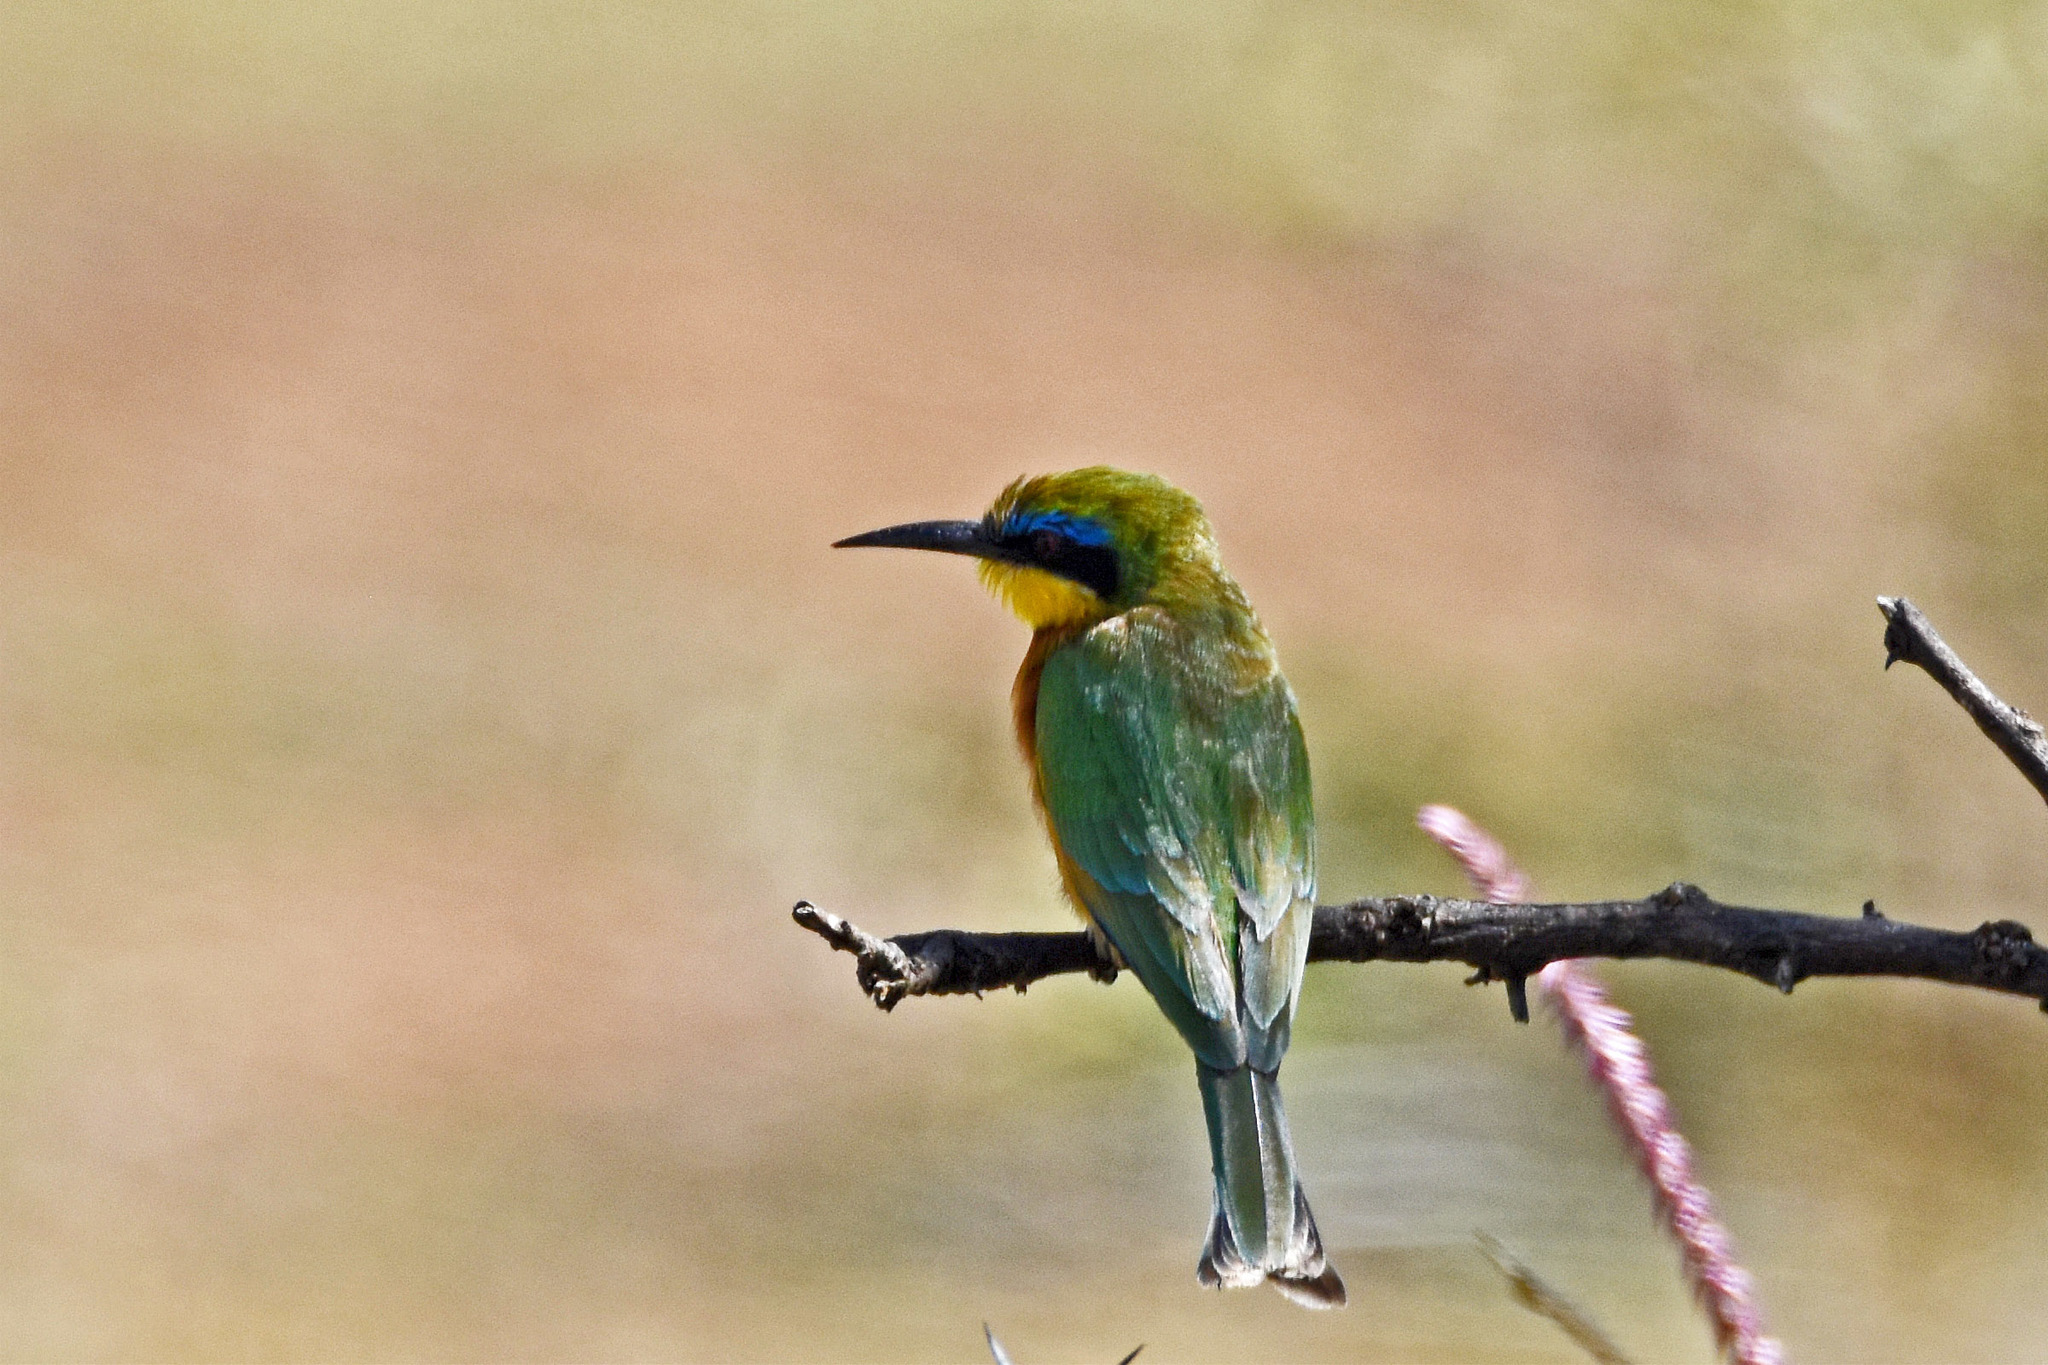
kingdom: Animalia
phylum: Chordata
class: Aves
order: Coraciiformes
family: Meropidae
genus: Merops
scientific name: Merops pusillus
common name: Little bee-eater
